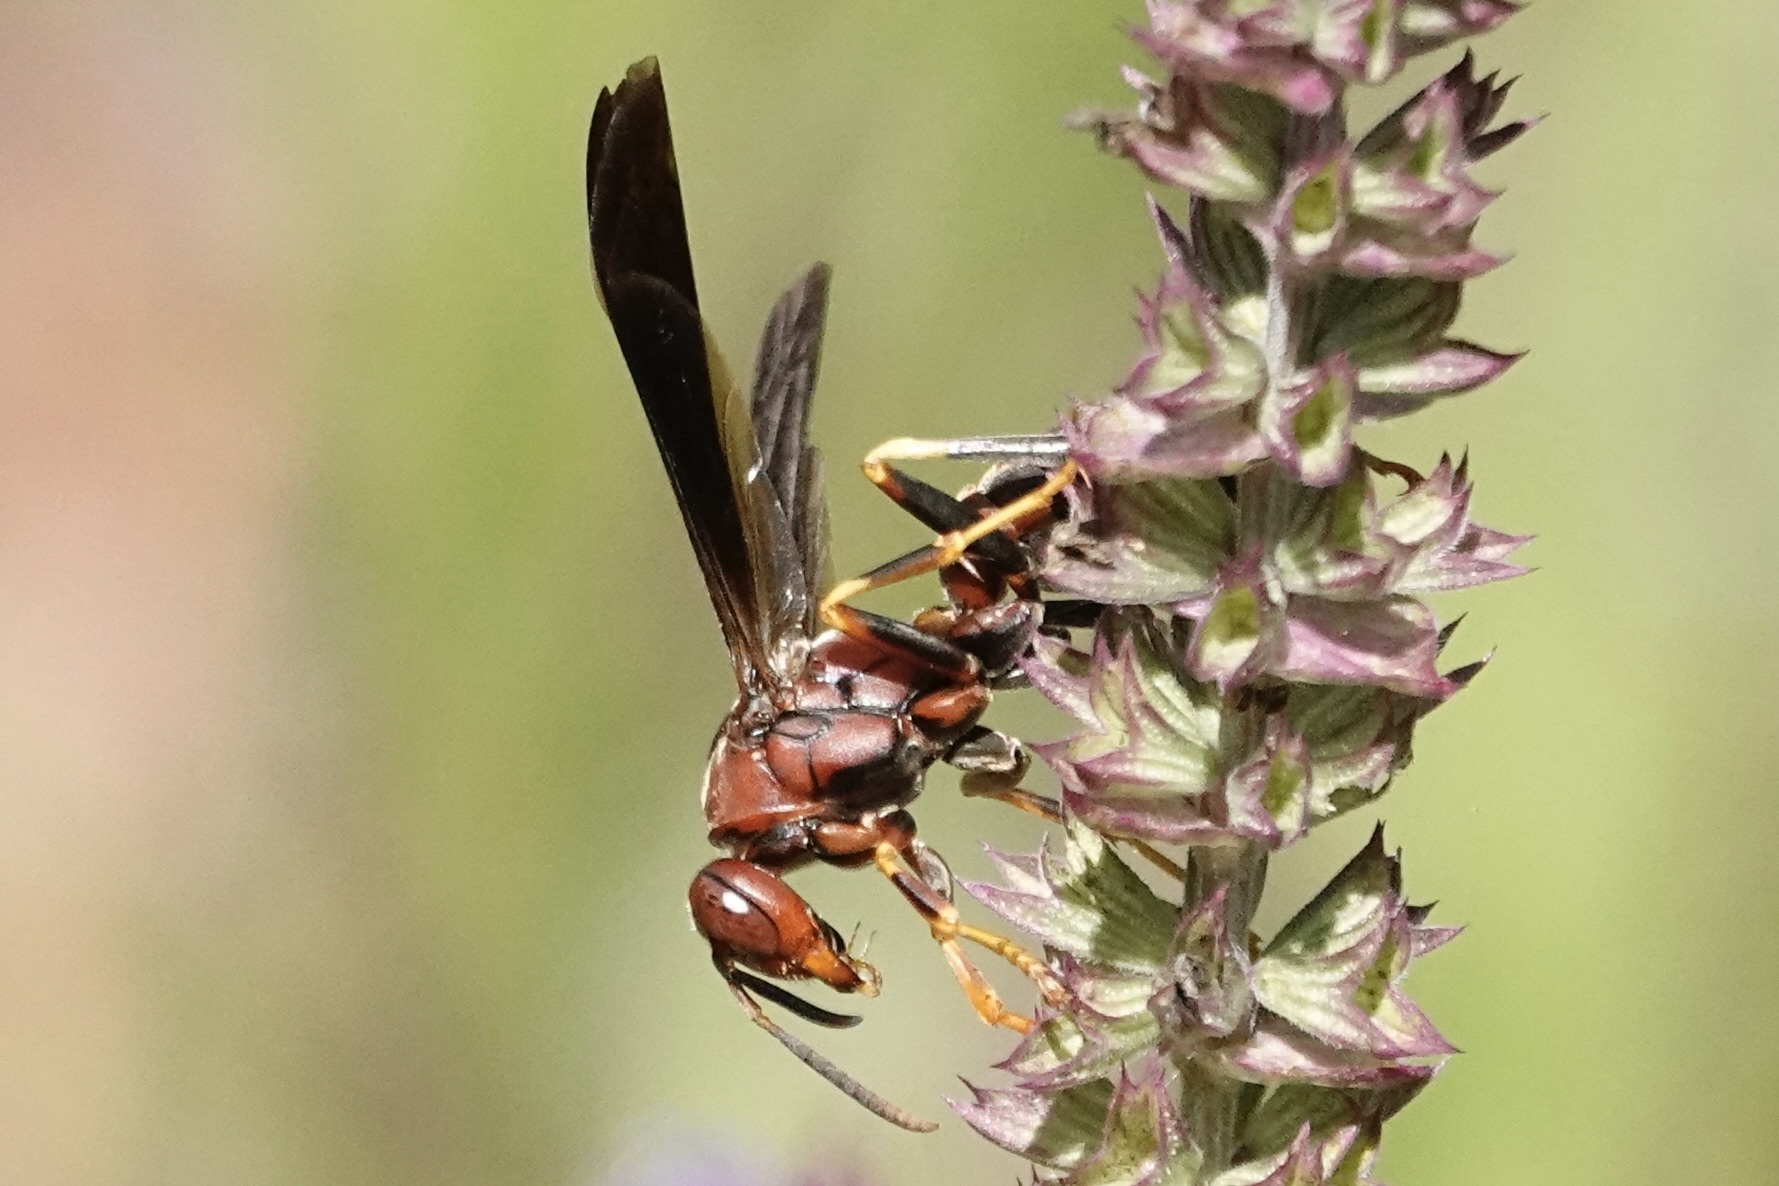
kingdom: Animalia
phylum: Arthropoda
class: Insecta
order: Hymenoptera
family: Eumenidae
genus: Polistes
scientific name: Polistes metricus
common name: Metric paper wasp
